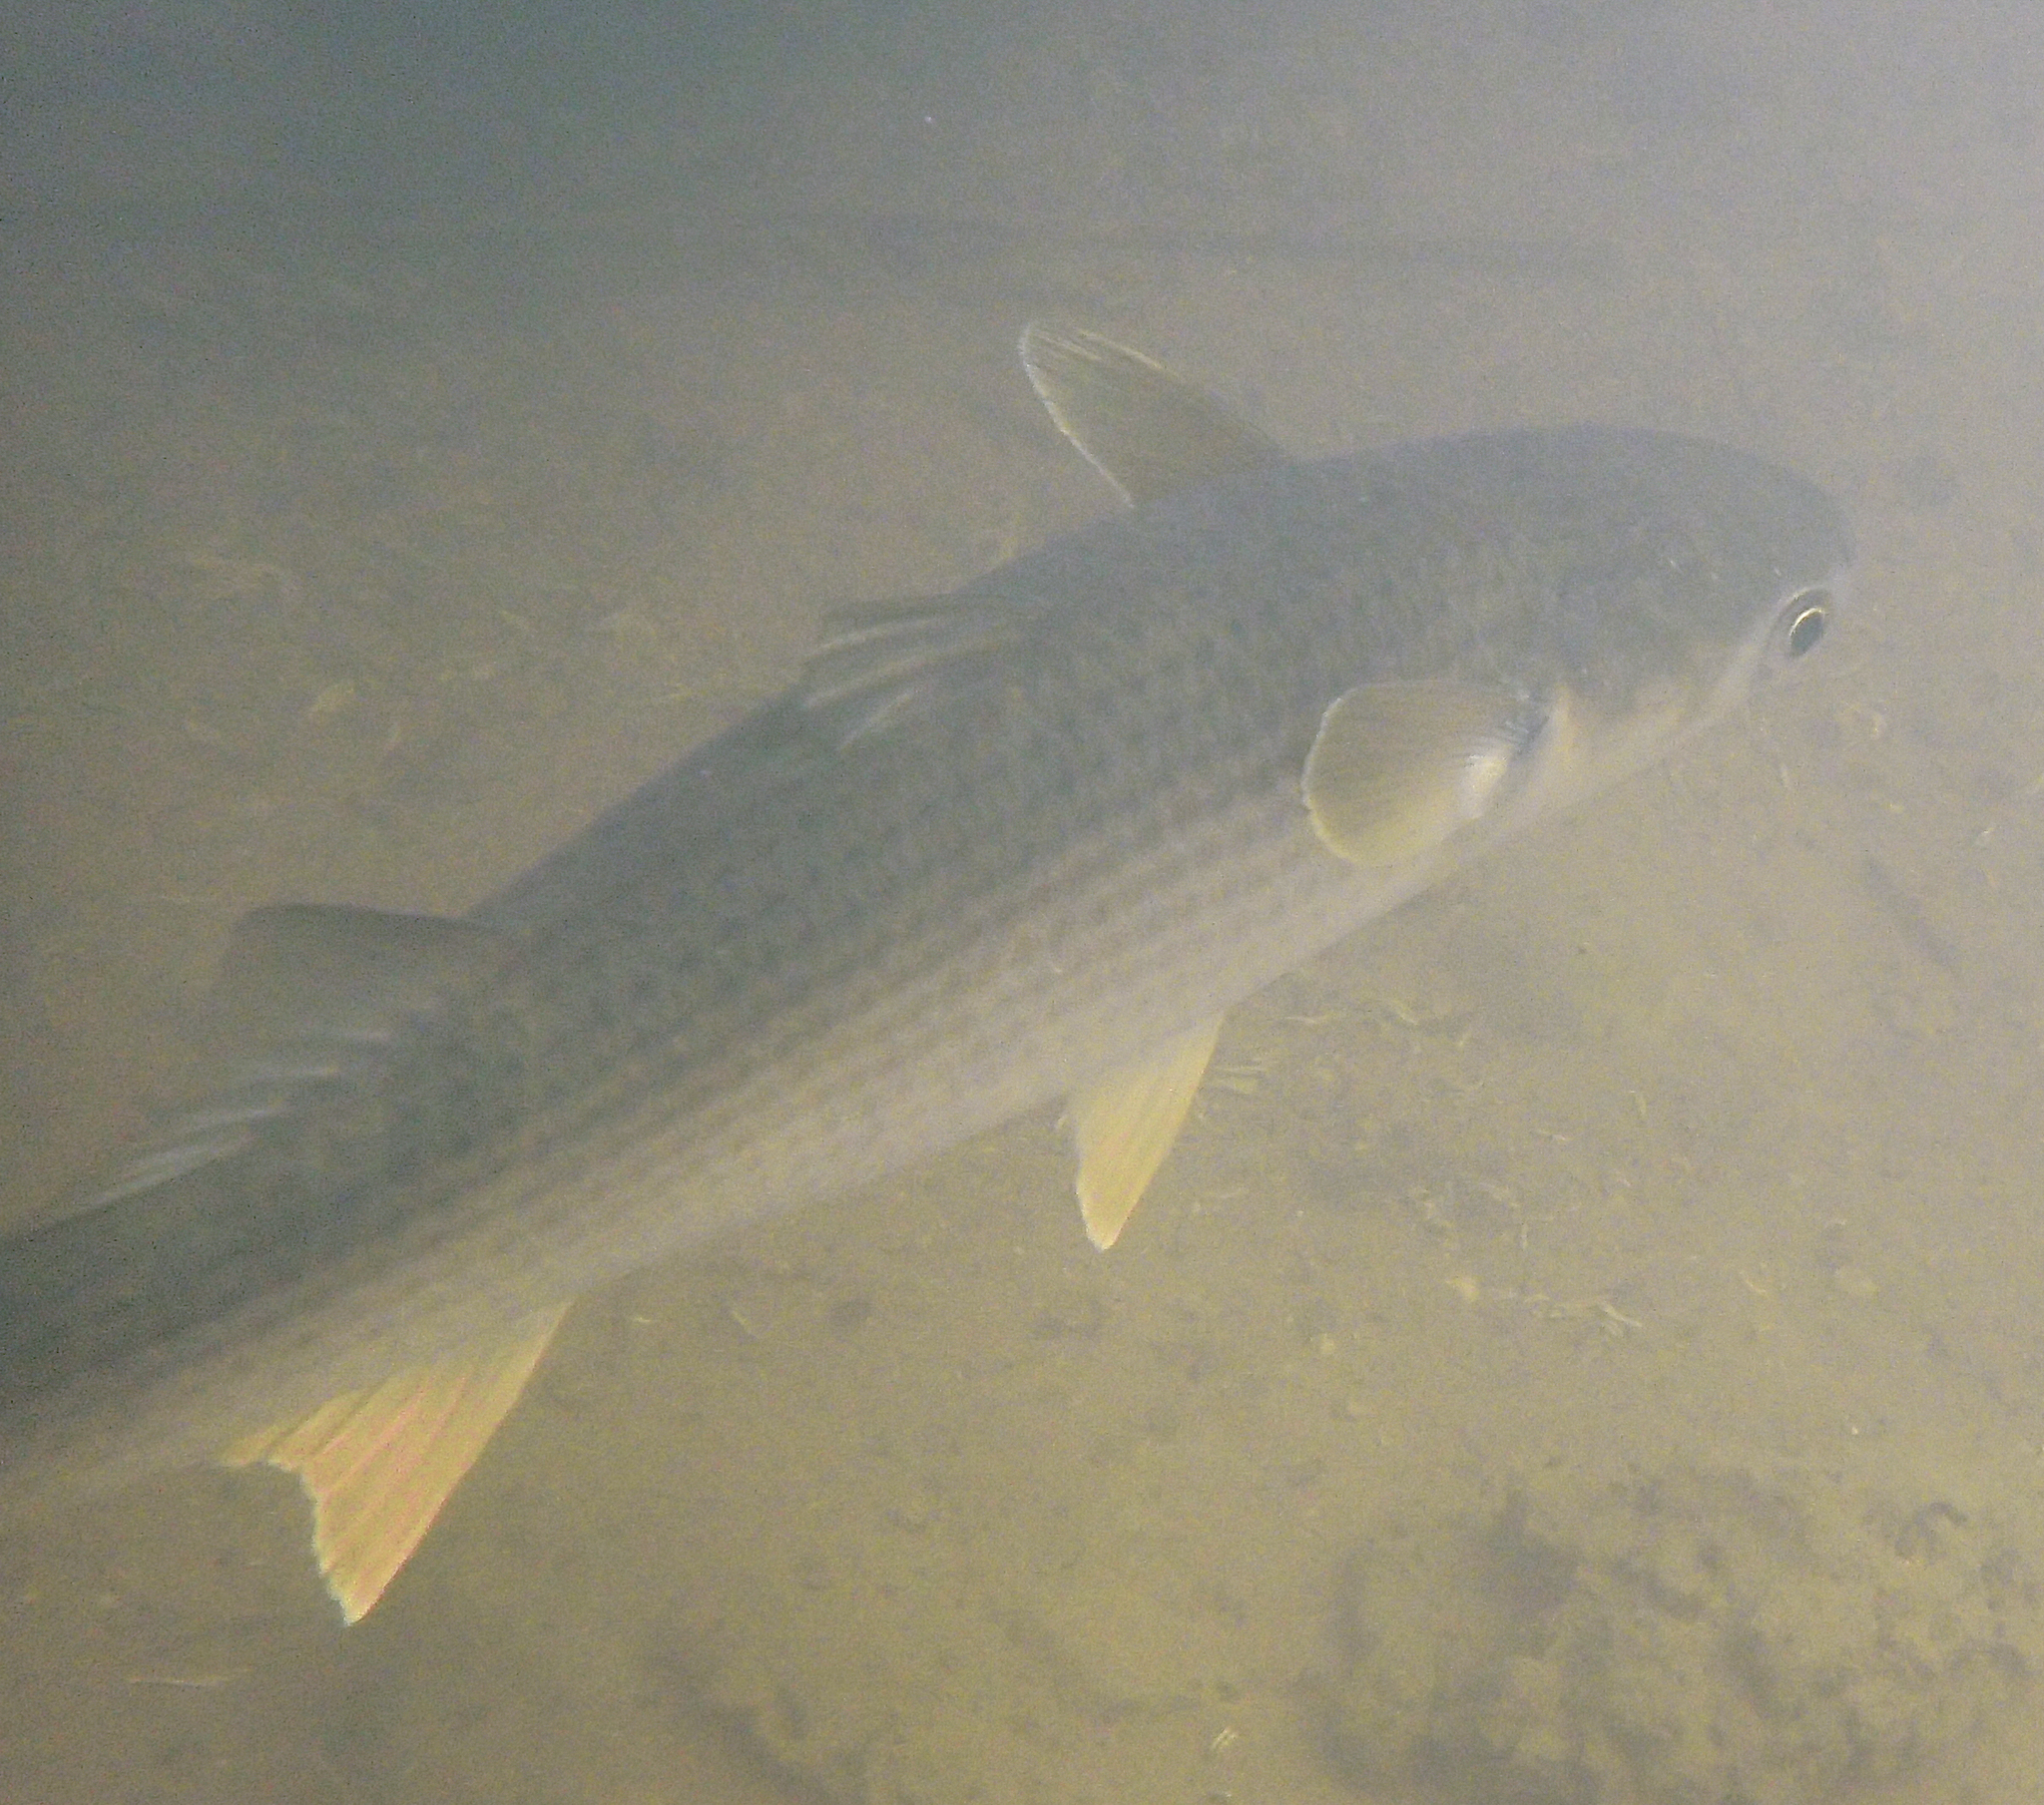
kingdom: Animalia
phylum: Chordata
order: Mugiliformes
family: Mugilidae
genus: Mugil
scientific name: Mugil cephalus
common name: Grey mullet
